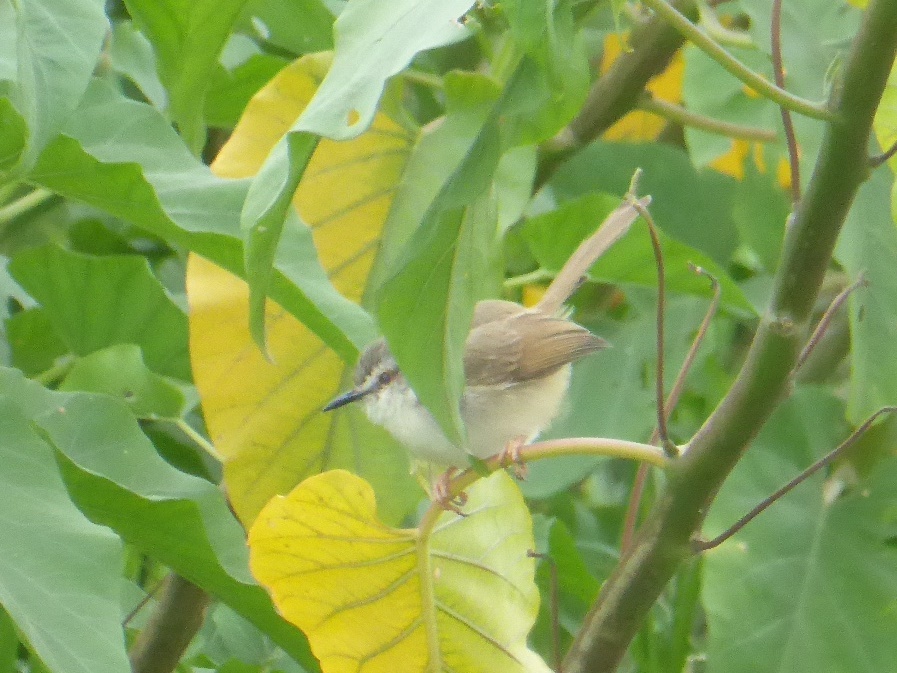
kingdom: Animalia
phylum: Chordata
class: Aves
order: Passeriformes
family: Cisticolidae
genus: Prinia
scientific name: Prinia subflava
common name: Tawny-flanked prinia
